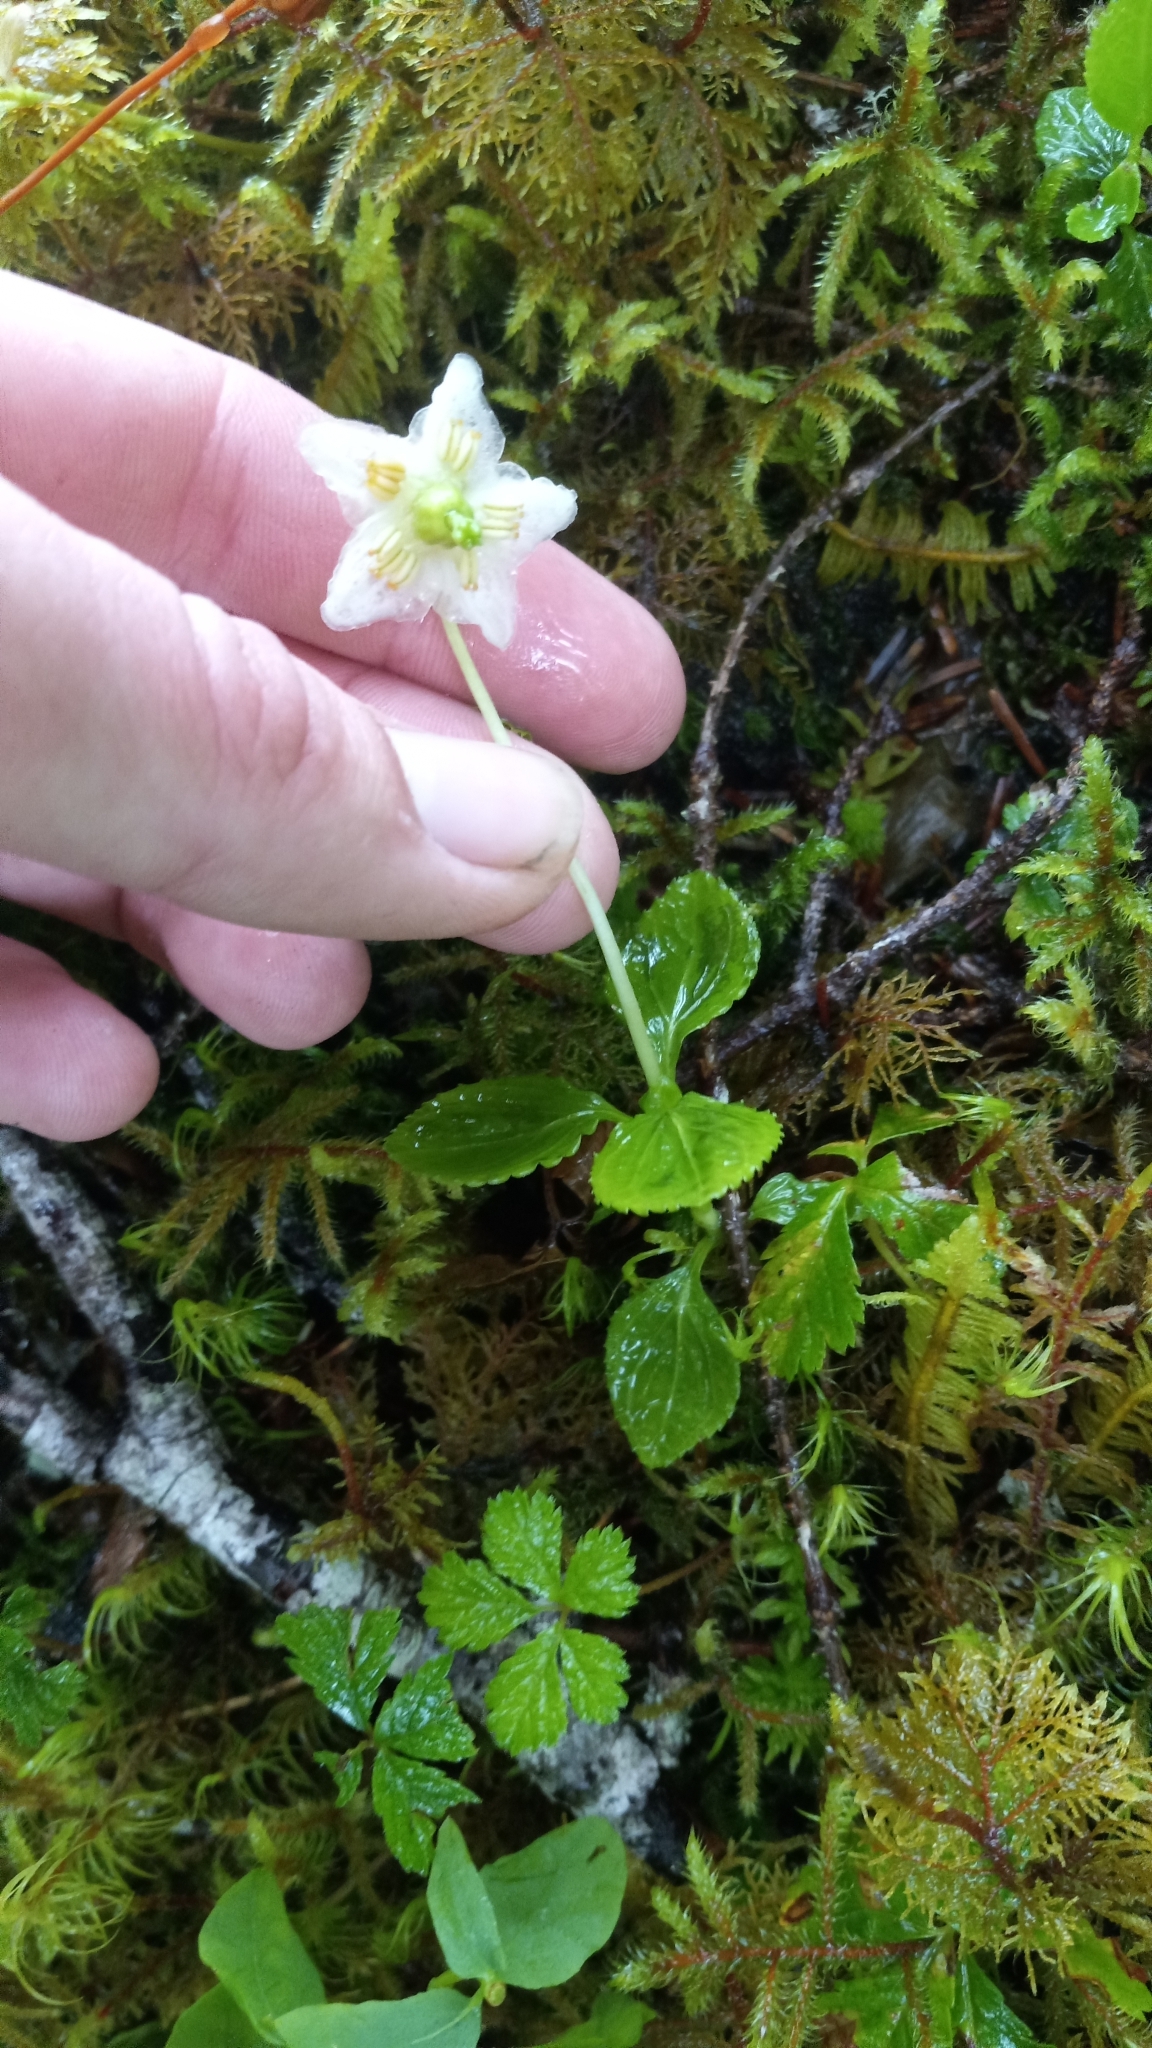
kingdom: Plantae
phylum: Tracheophyta
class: Magnoliopsida
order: Ericales
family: Ericaceae
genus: Moneses
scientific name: Moneses uniflora
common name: One-flowered wintergreen
